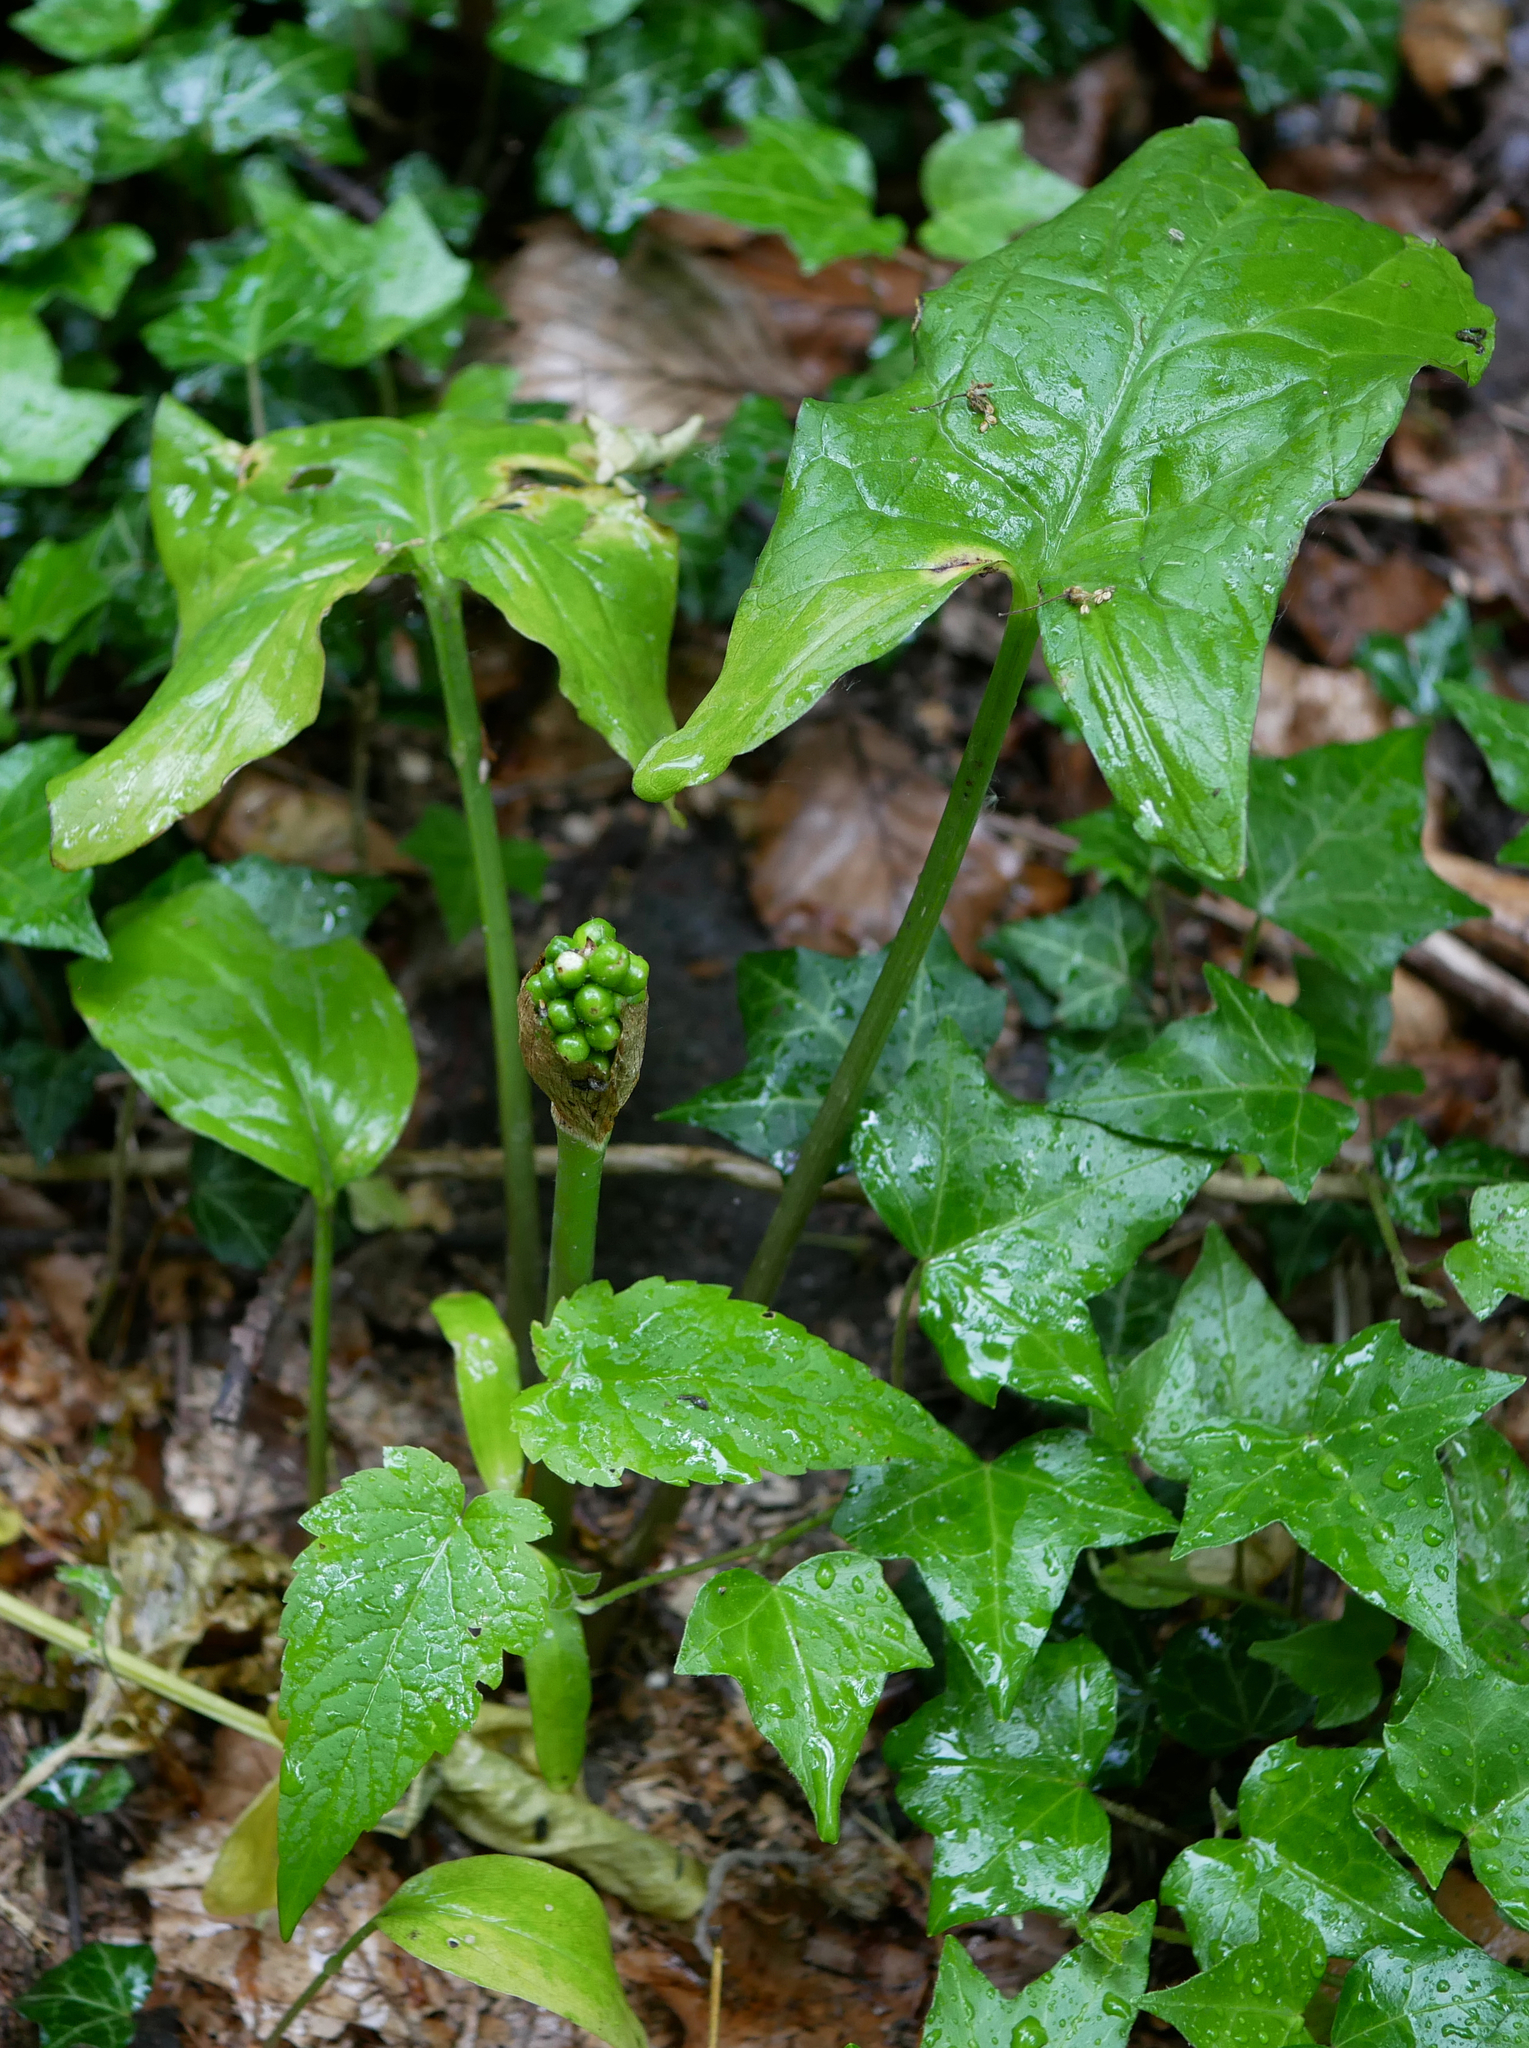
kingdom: Plantae
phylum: Tracheophyta
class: Liliopsida
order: Alismatales
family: Araceae
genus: Arum
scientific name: Arum maculatum
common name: Lords-and-ladies
